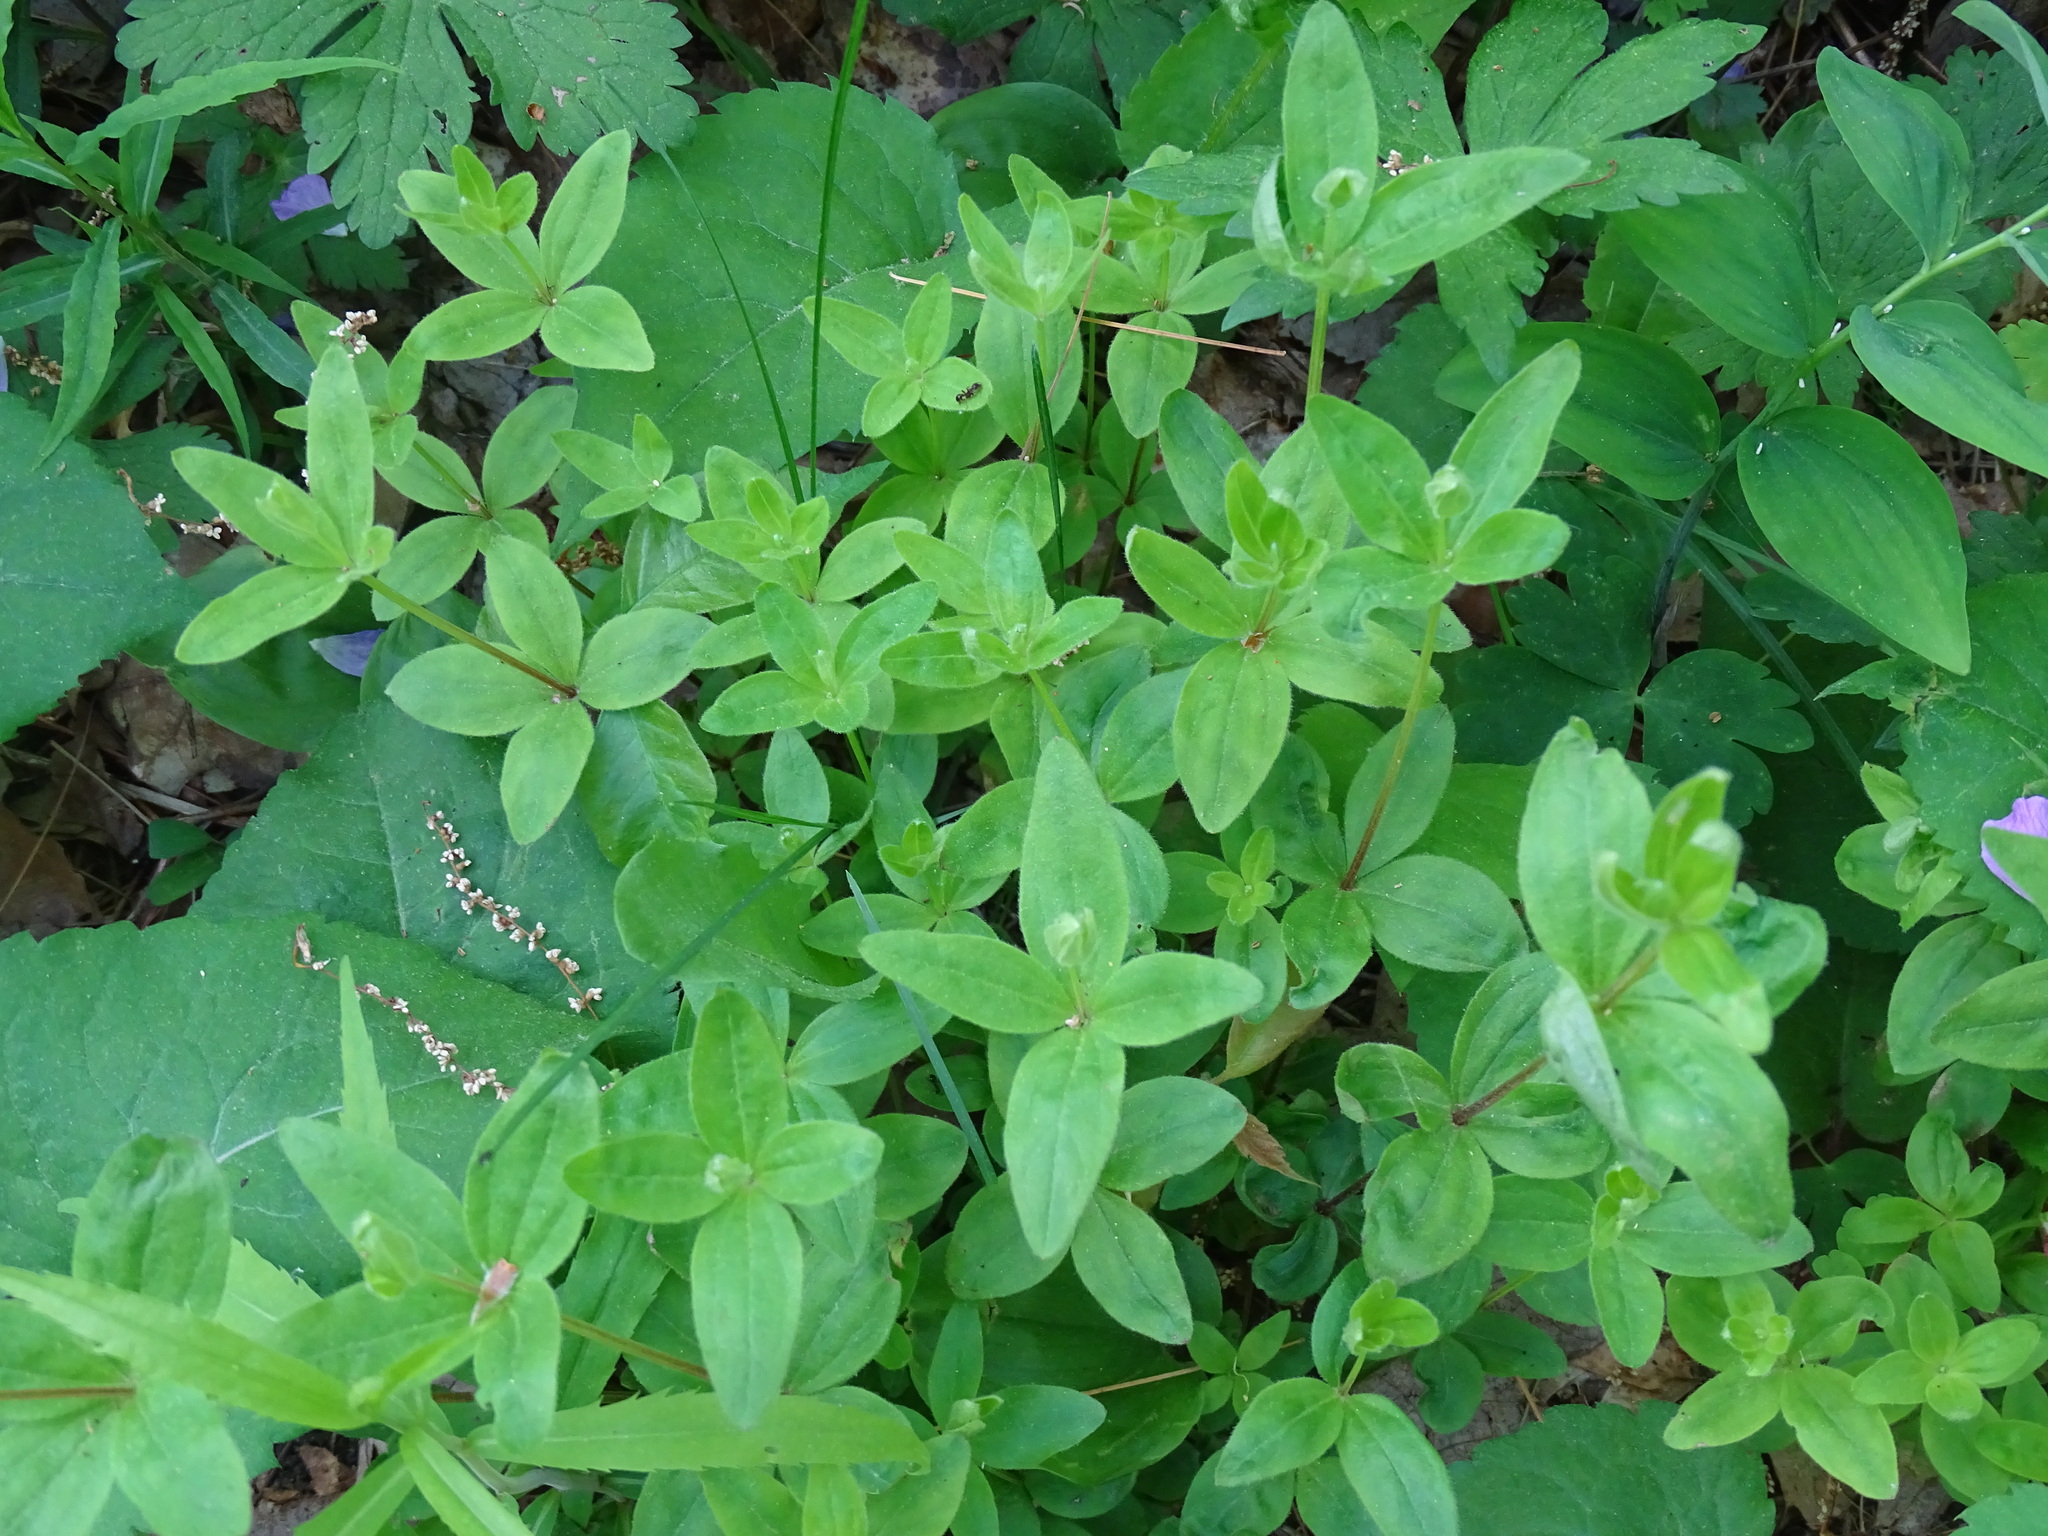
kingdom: Plantae
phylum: Tracheophyta
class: Magnoliopsida
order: Gentianales
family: Rubiaceae
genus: Galium
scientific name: Galium circaezans
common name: Forest bedstraw
